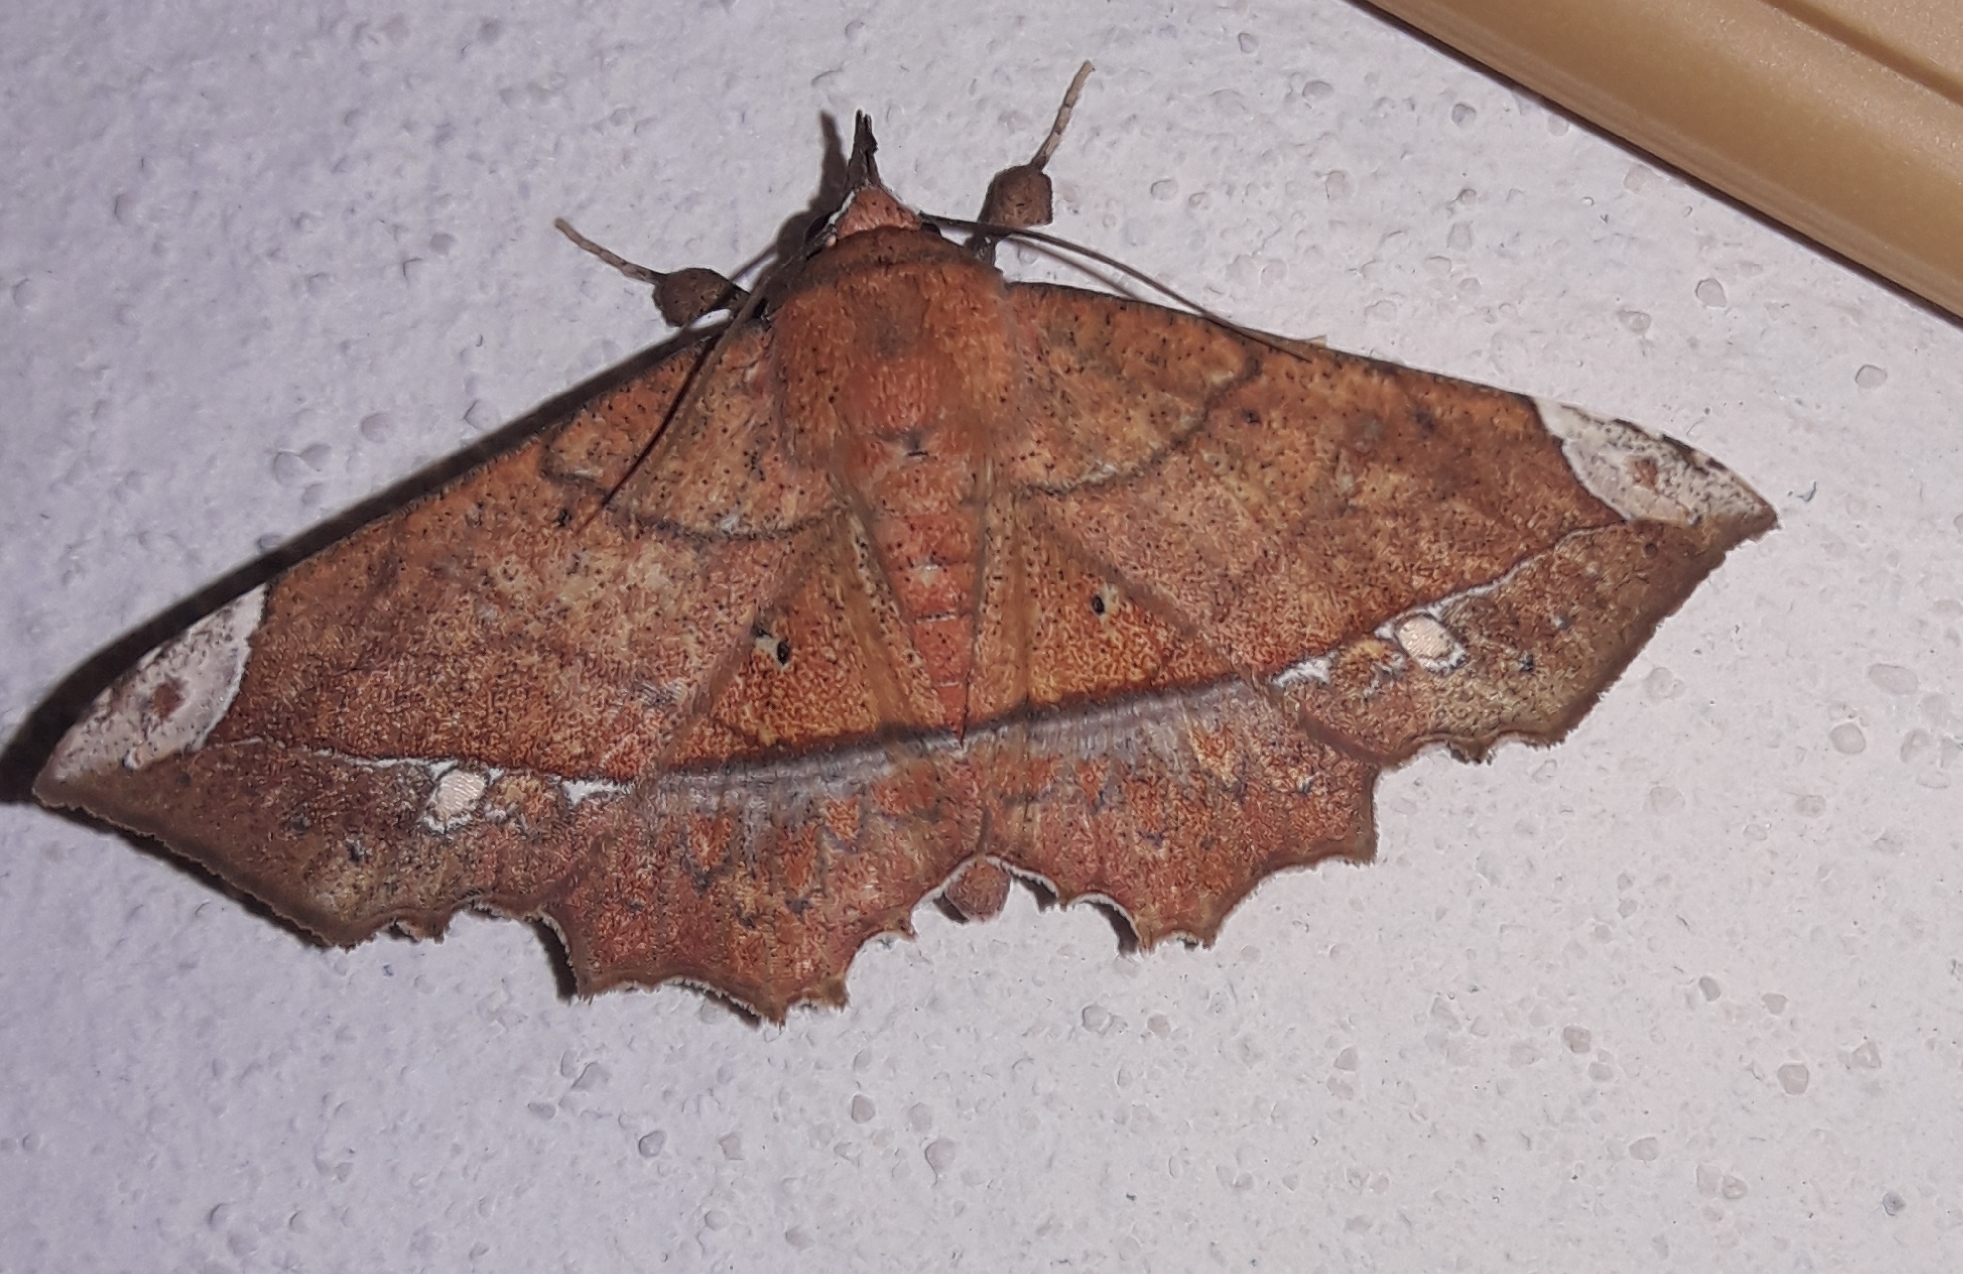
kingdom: Animalia
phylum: Arthropoda
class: Insecta
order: Lepidoptera
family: Erebidae
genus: Syllectra
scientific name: Syllectra erycata
